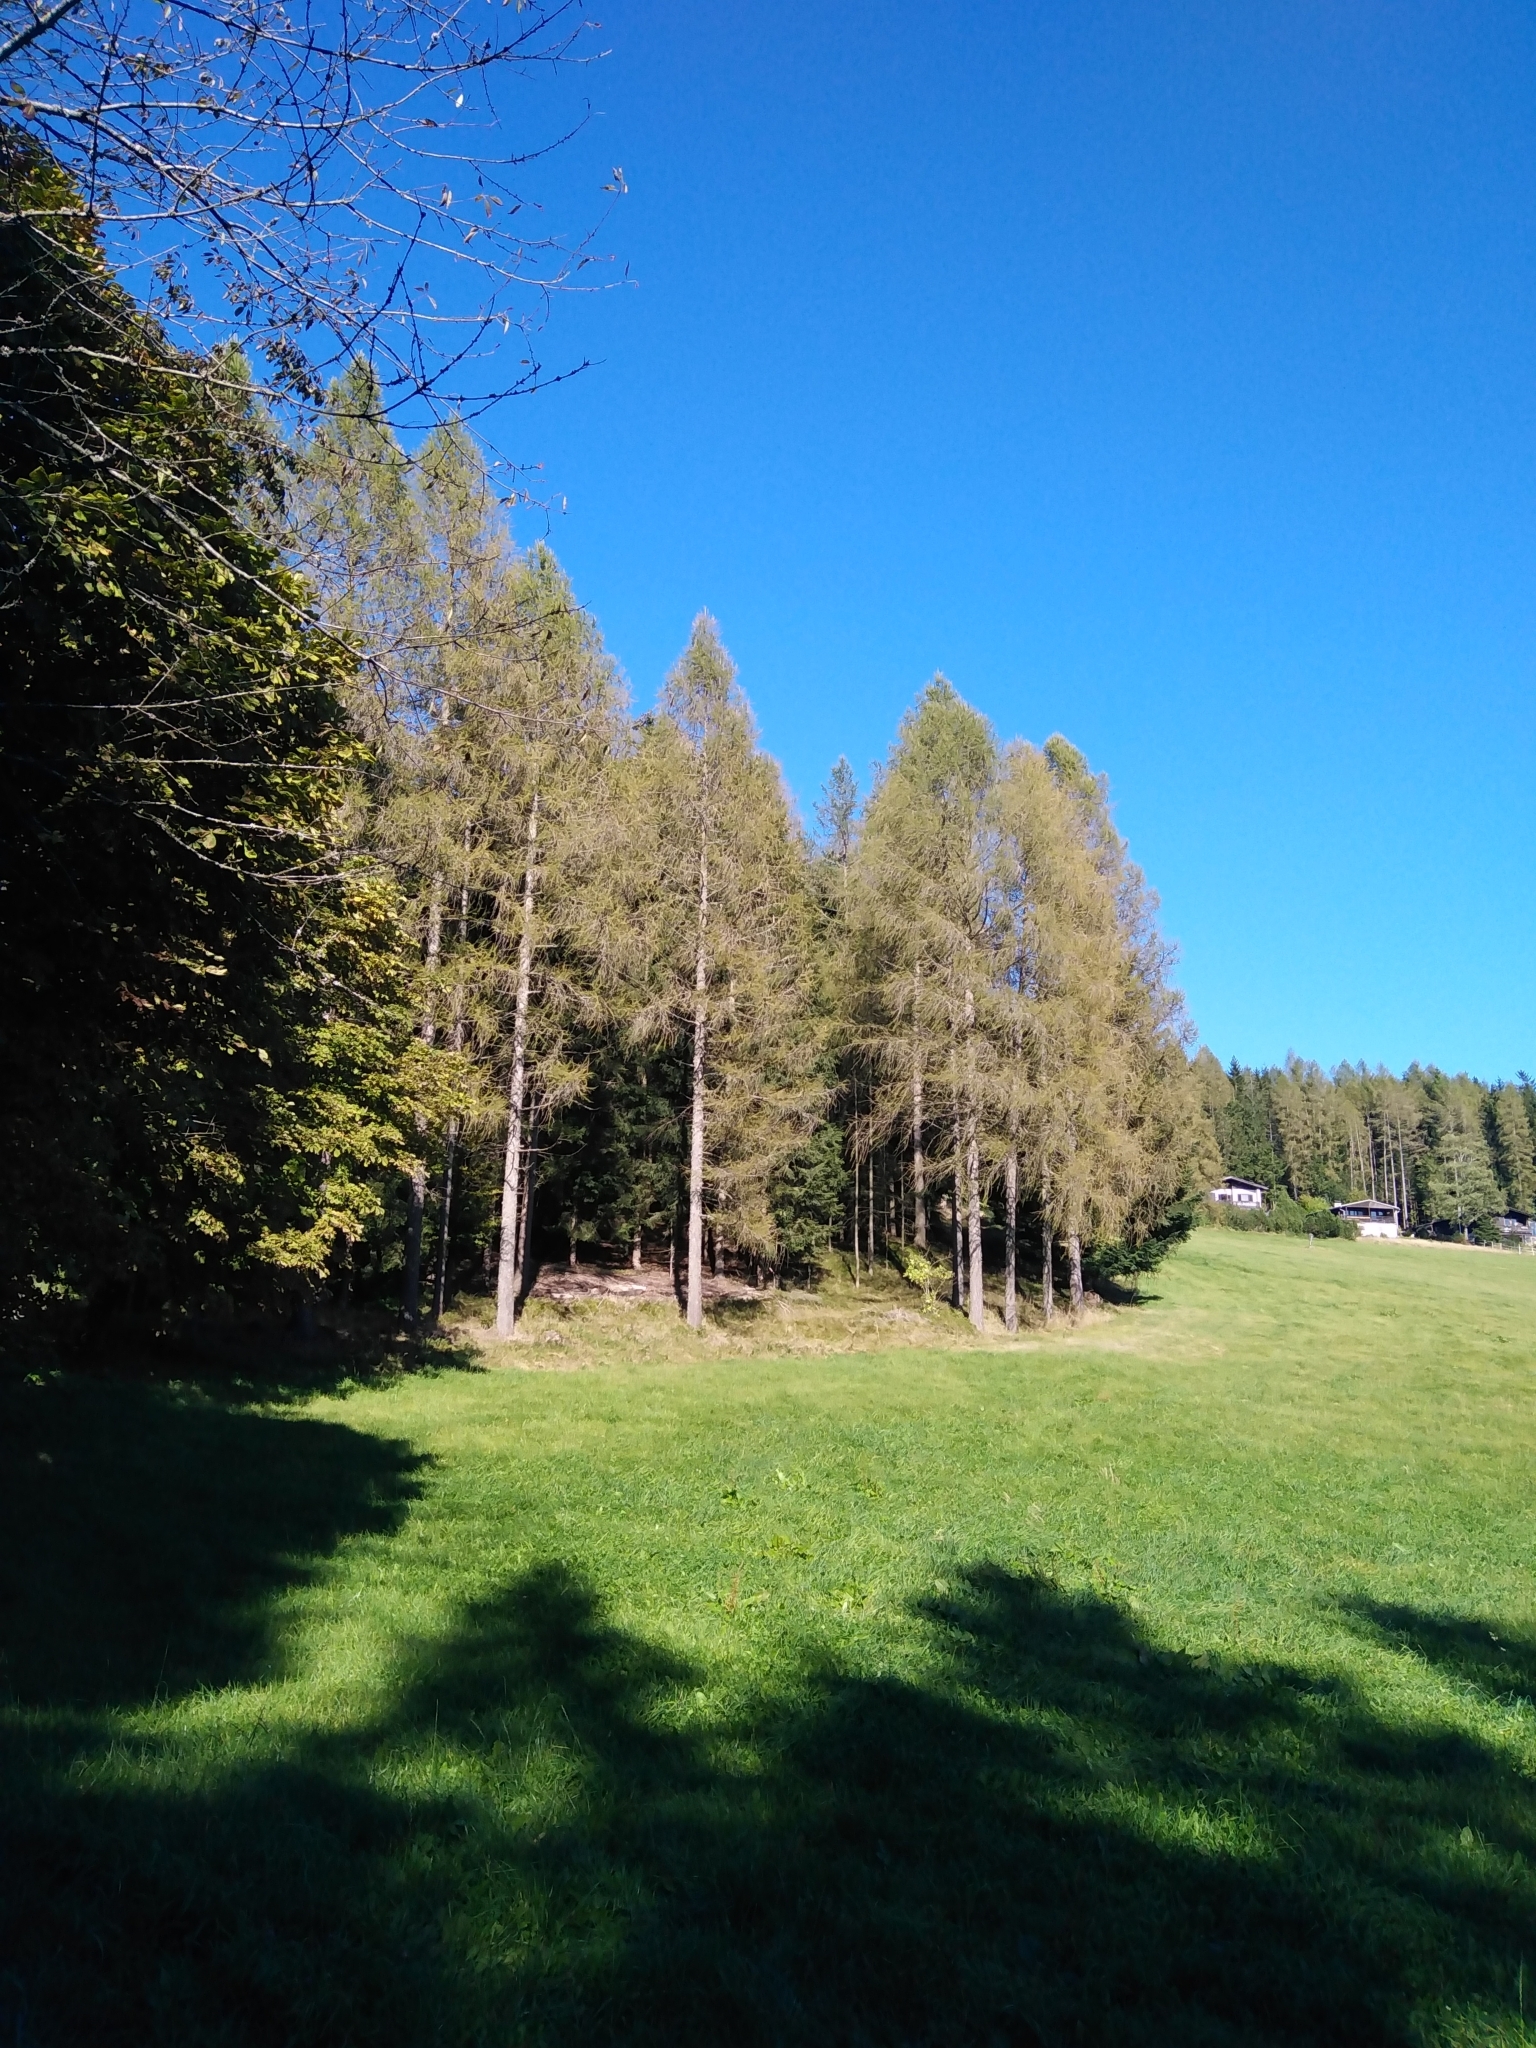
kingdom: Plantae
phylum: Tracheophyta
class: Pinopsida
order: Pinales
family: Pinaceae
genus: Larix
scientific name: Larix decidua
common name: European larch
